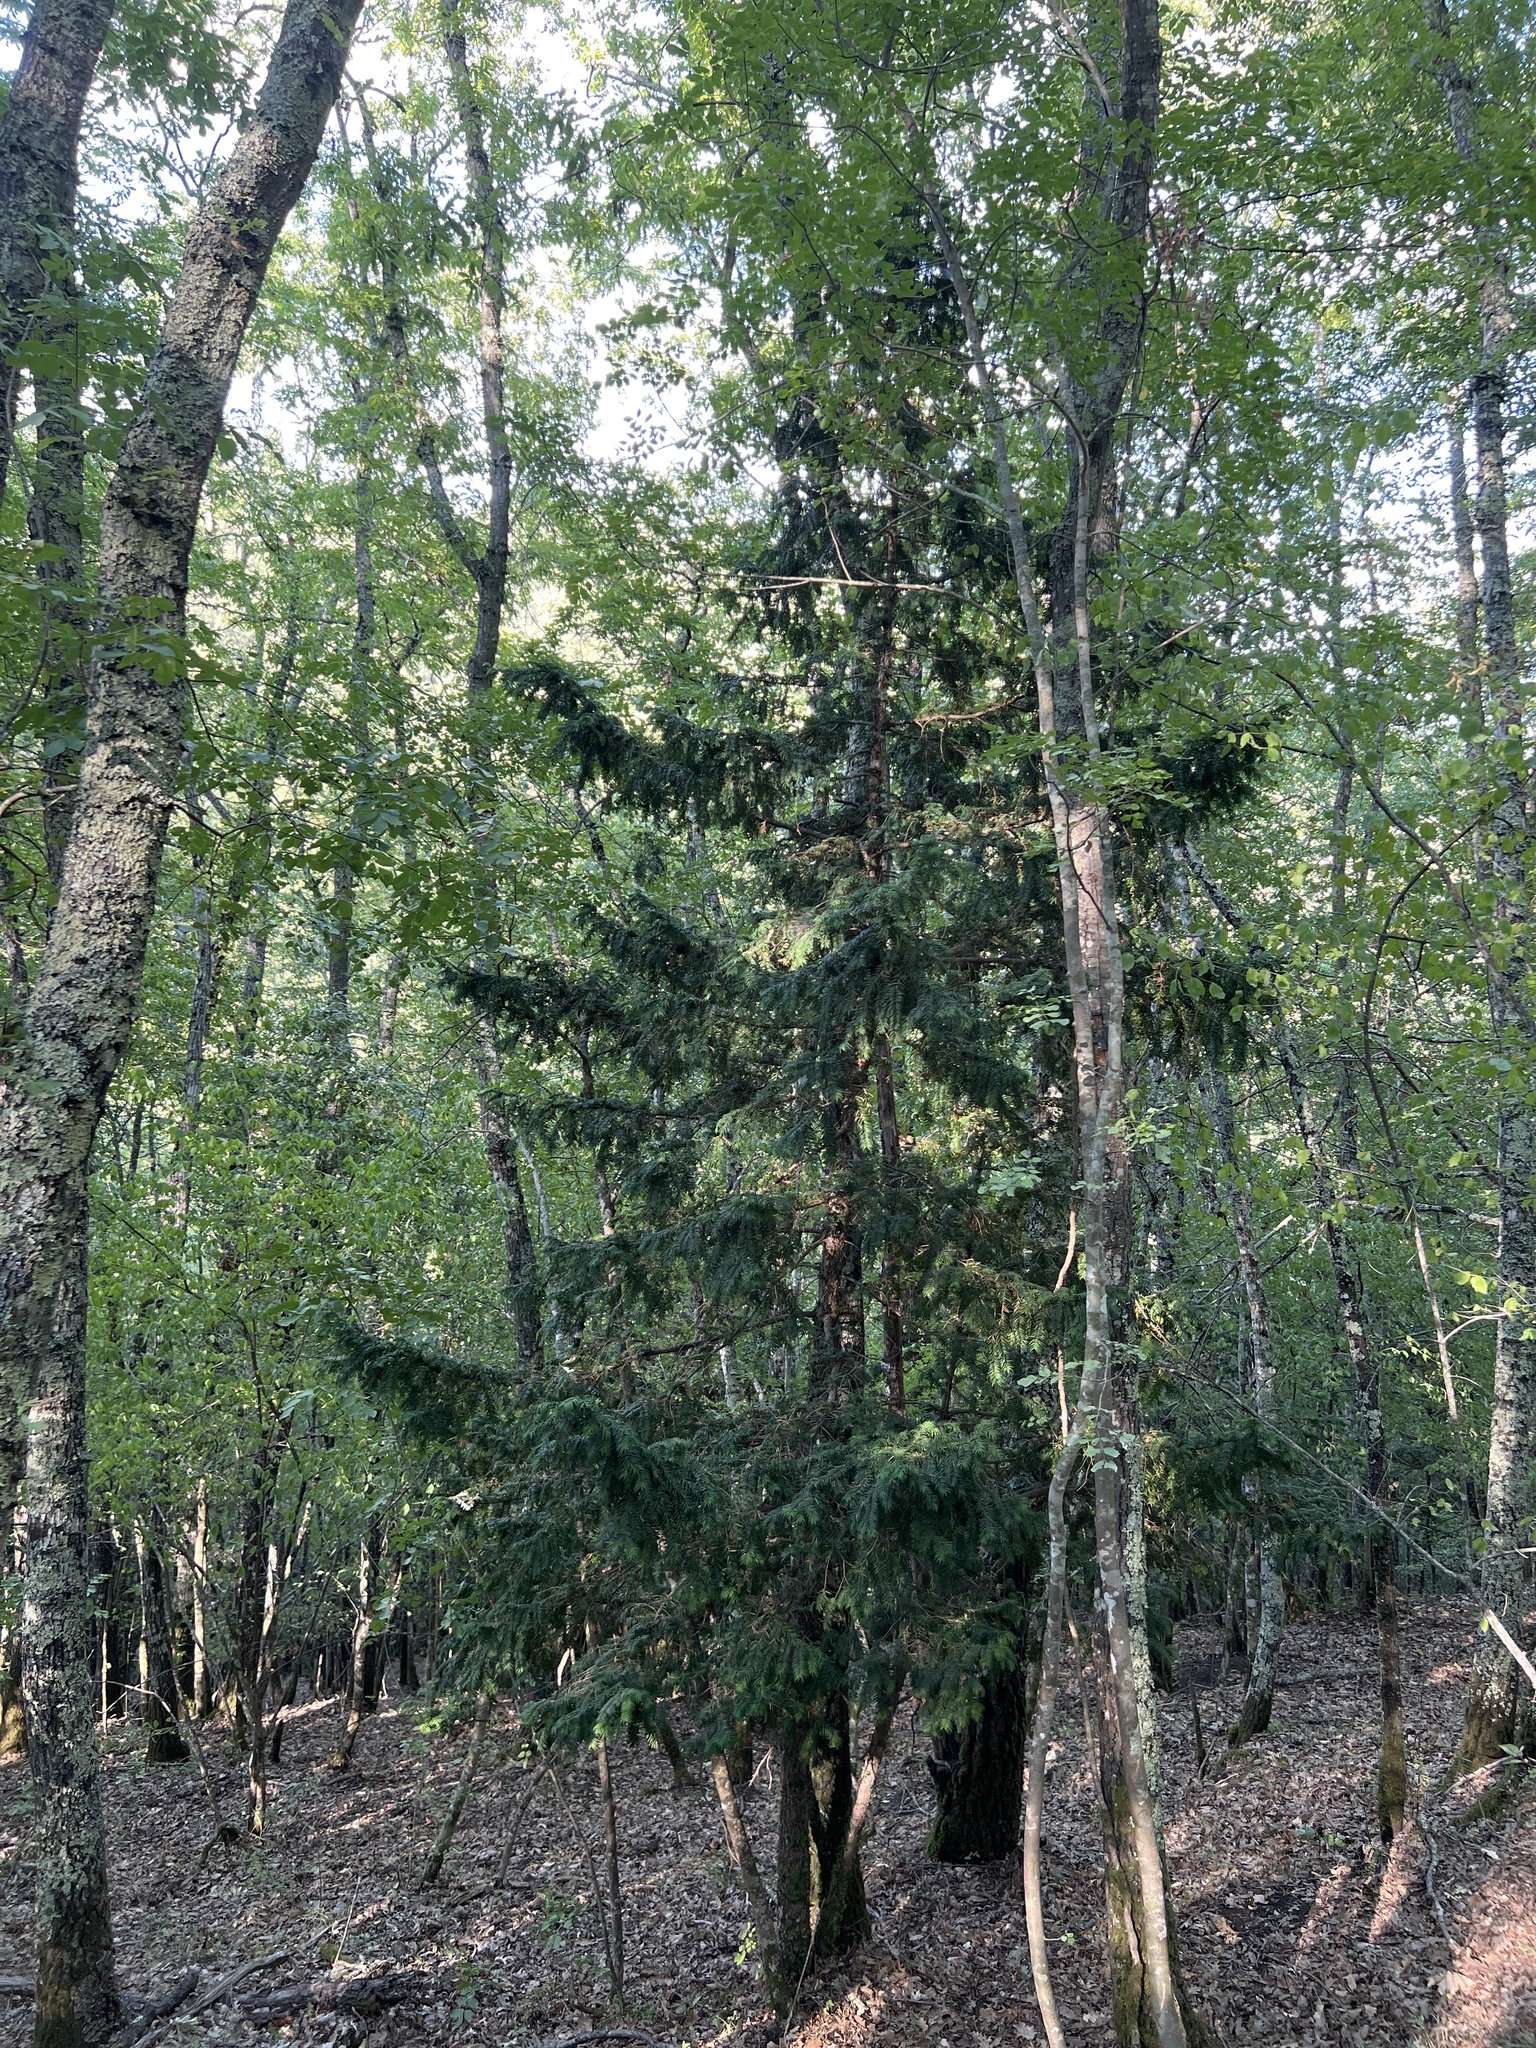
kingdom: Plantae
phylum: Tracheophyta
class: Pinopsida
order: Pinales
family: Taxaceae
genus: Taxus
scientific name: Taxus baccata
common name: Yew
